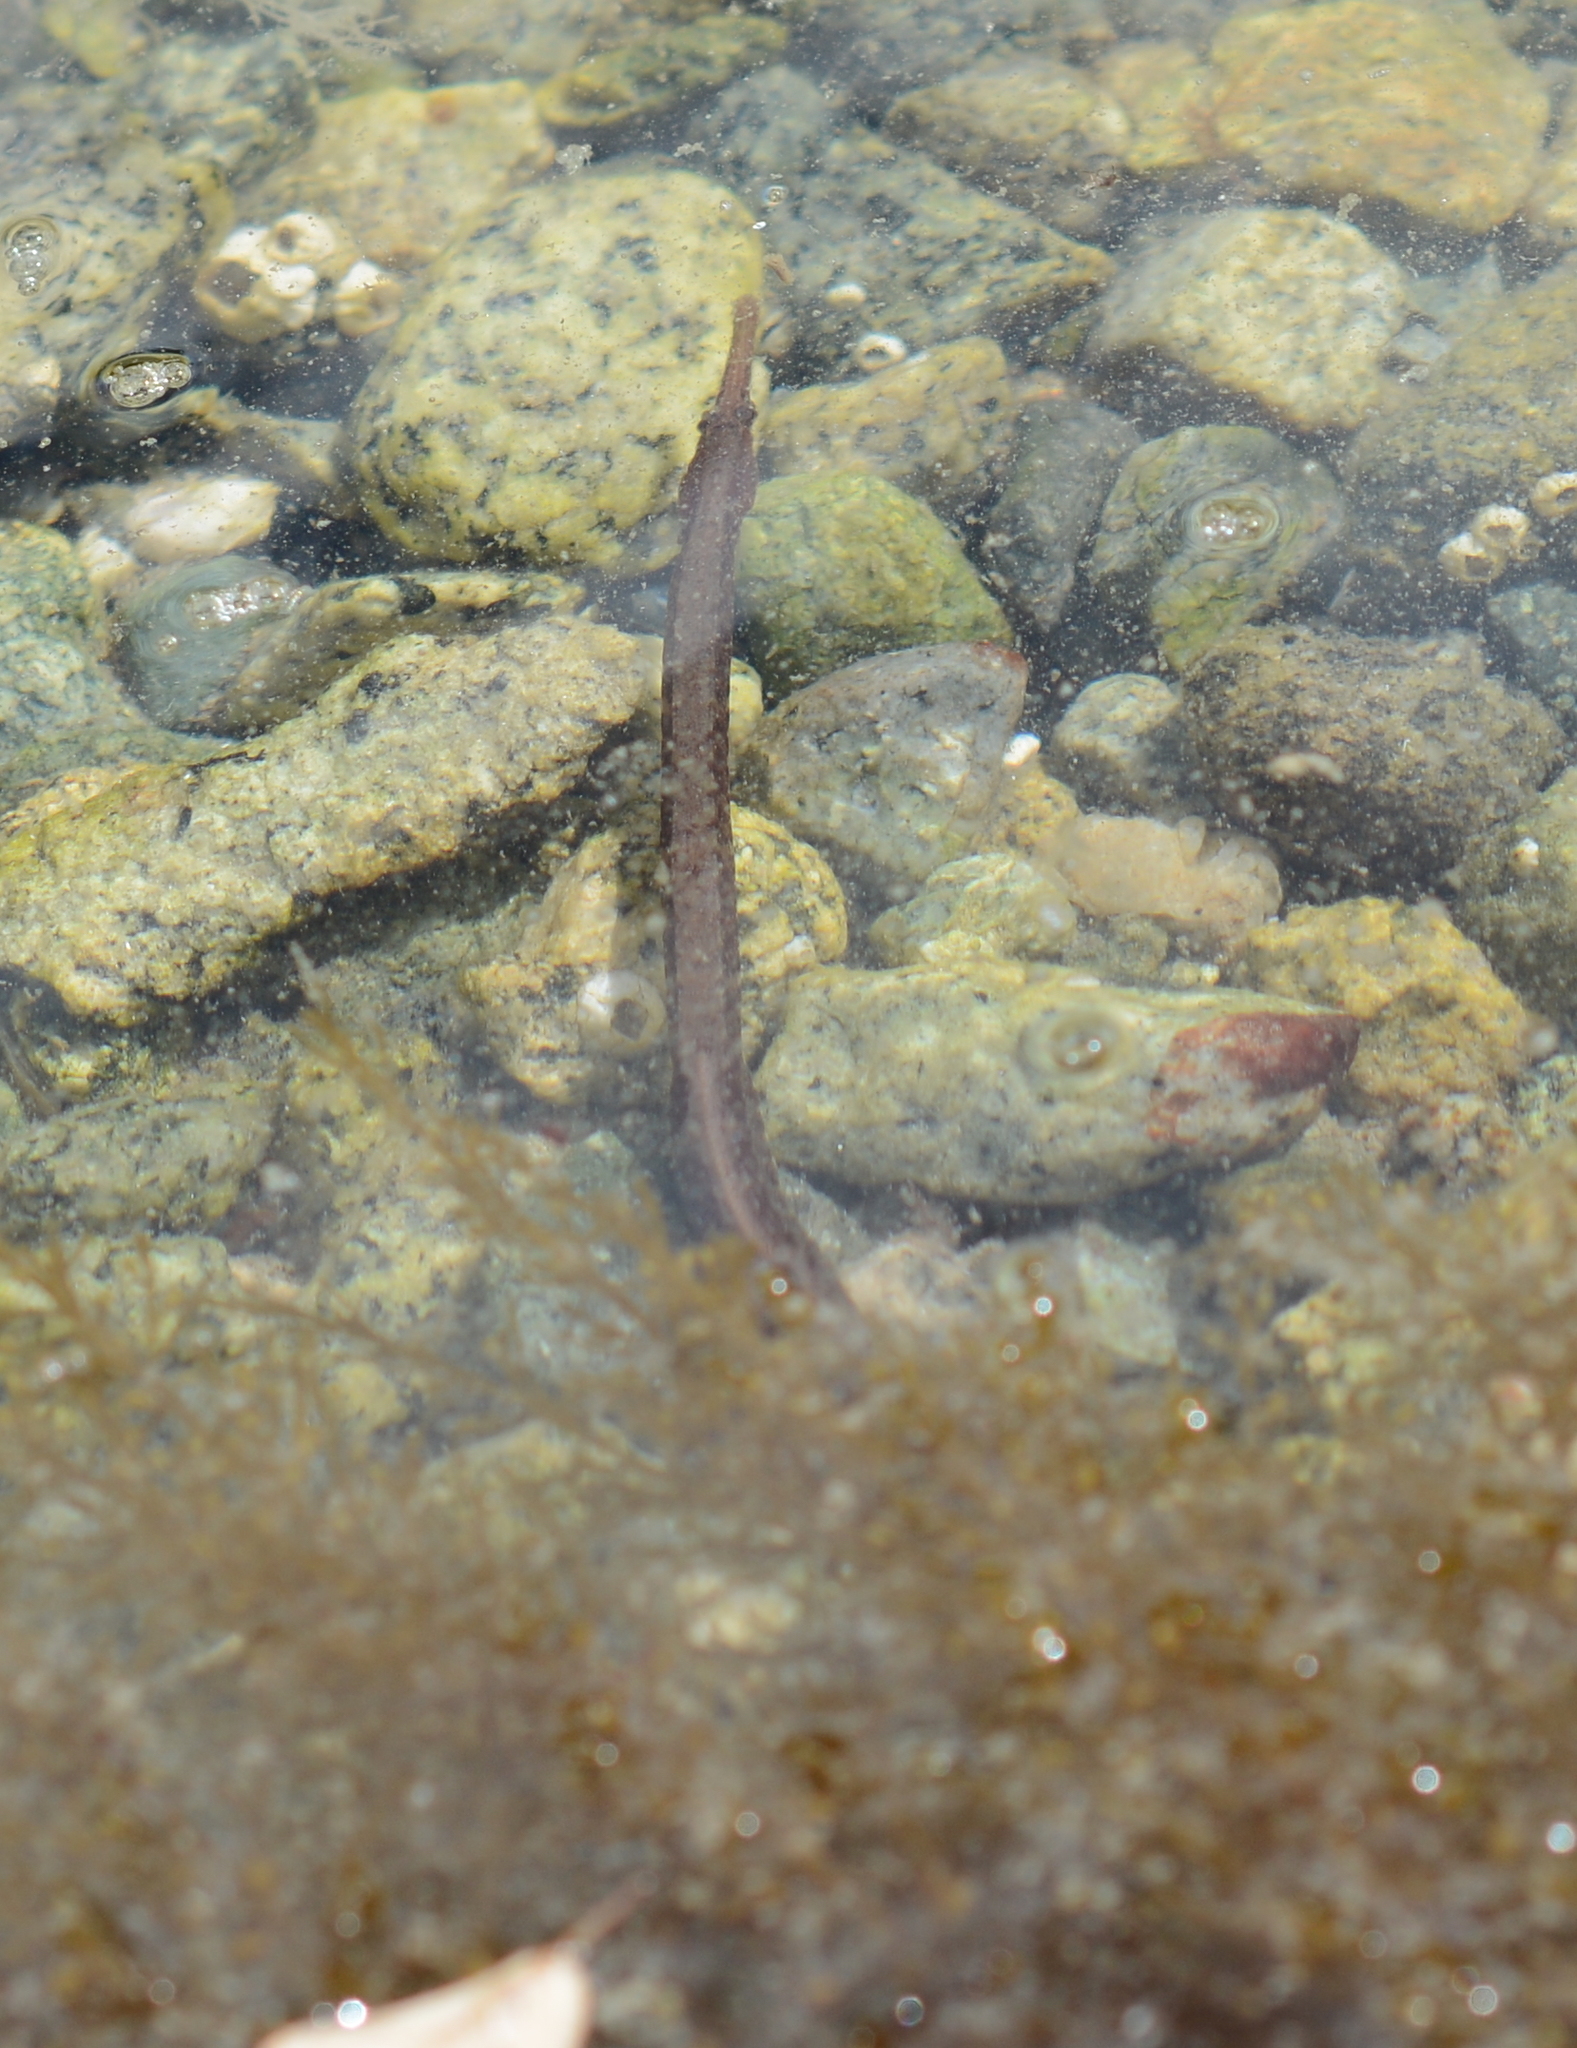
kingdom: Animalia
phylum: Chordata
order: Syngnathiformes
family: Syngnathidae
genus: Syngnathus
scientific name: Syngnathus californiensis
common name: Great pipefish
